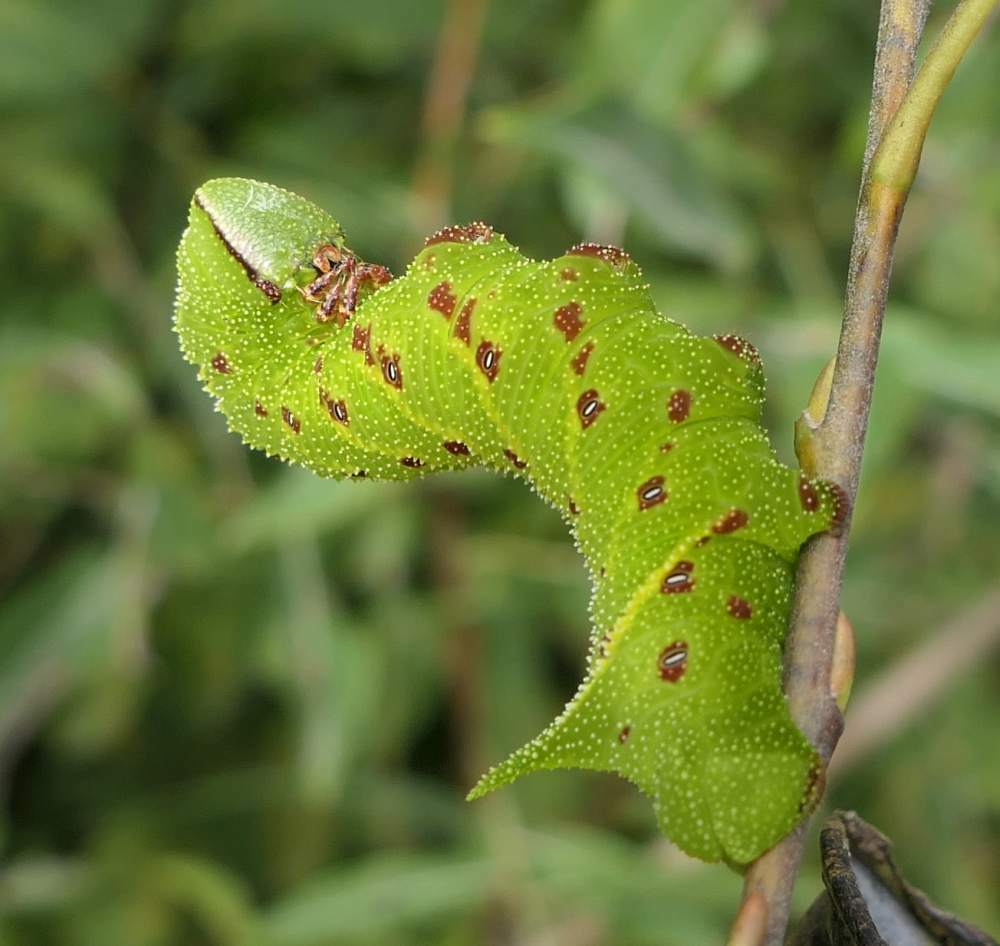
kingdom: Animalia
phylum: Arthropoda
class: Insecta
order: Lepidoptera
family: Sphingidae
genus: Paonias
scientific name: Paonias excaecata
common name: Blind-eyed sphinx
